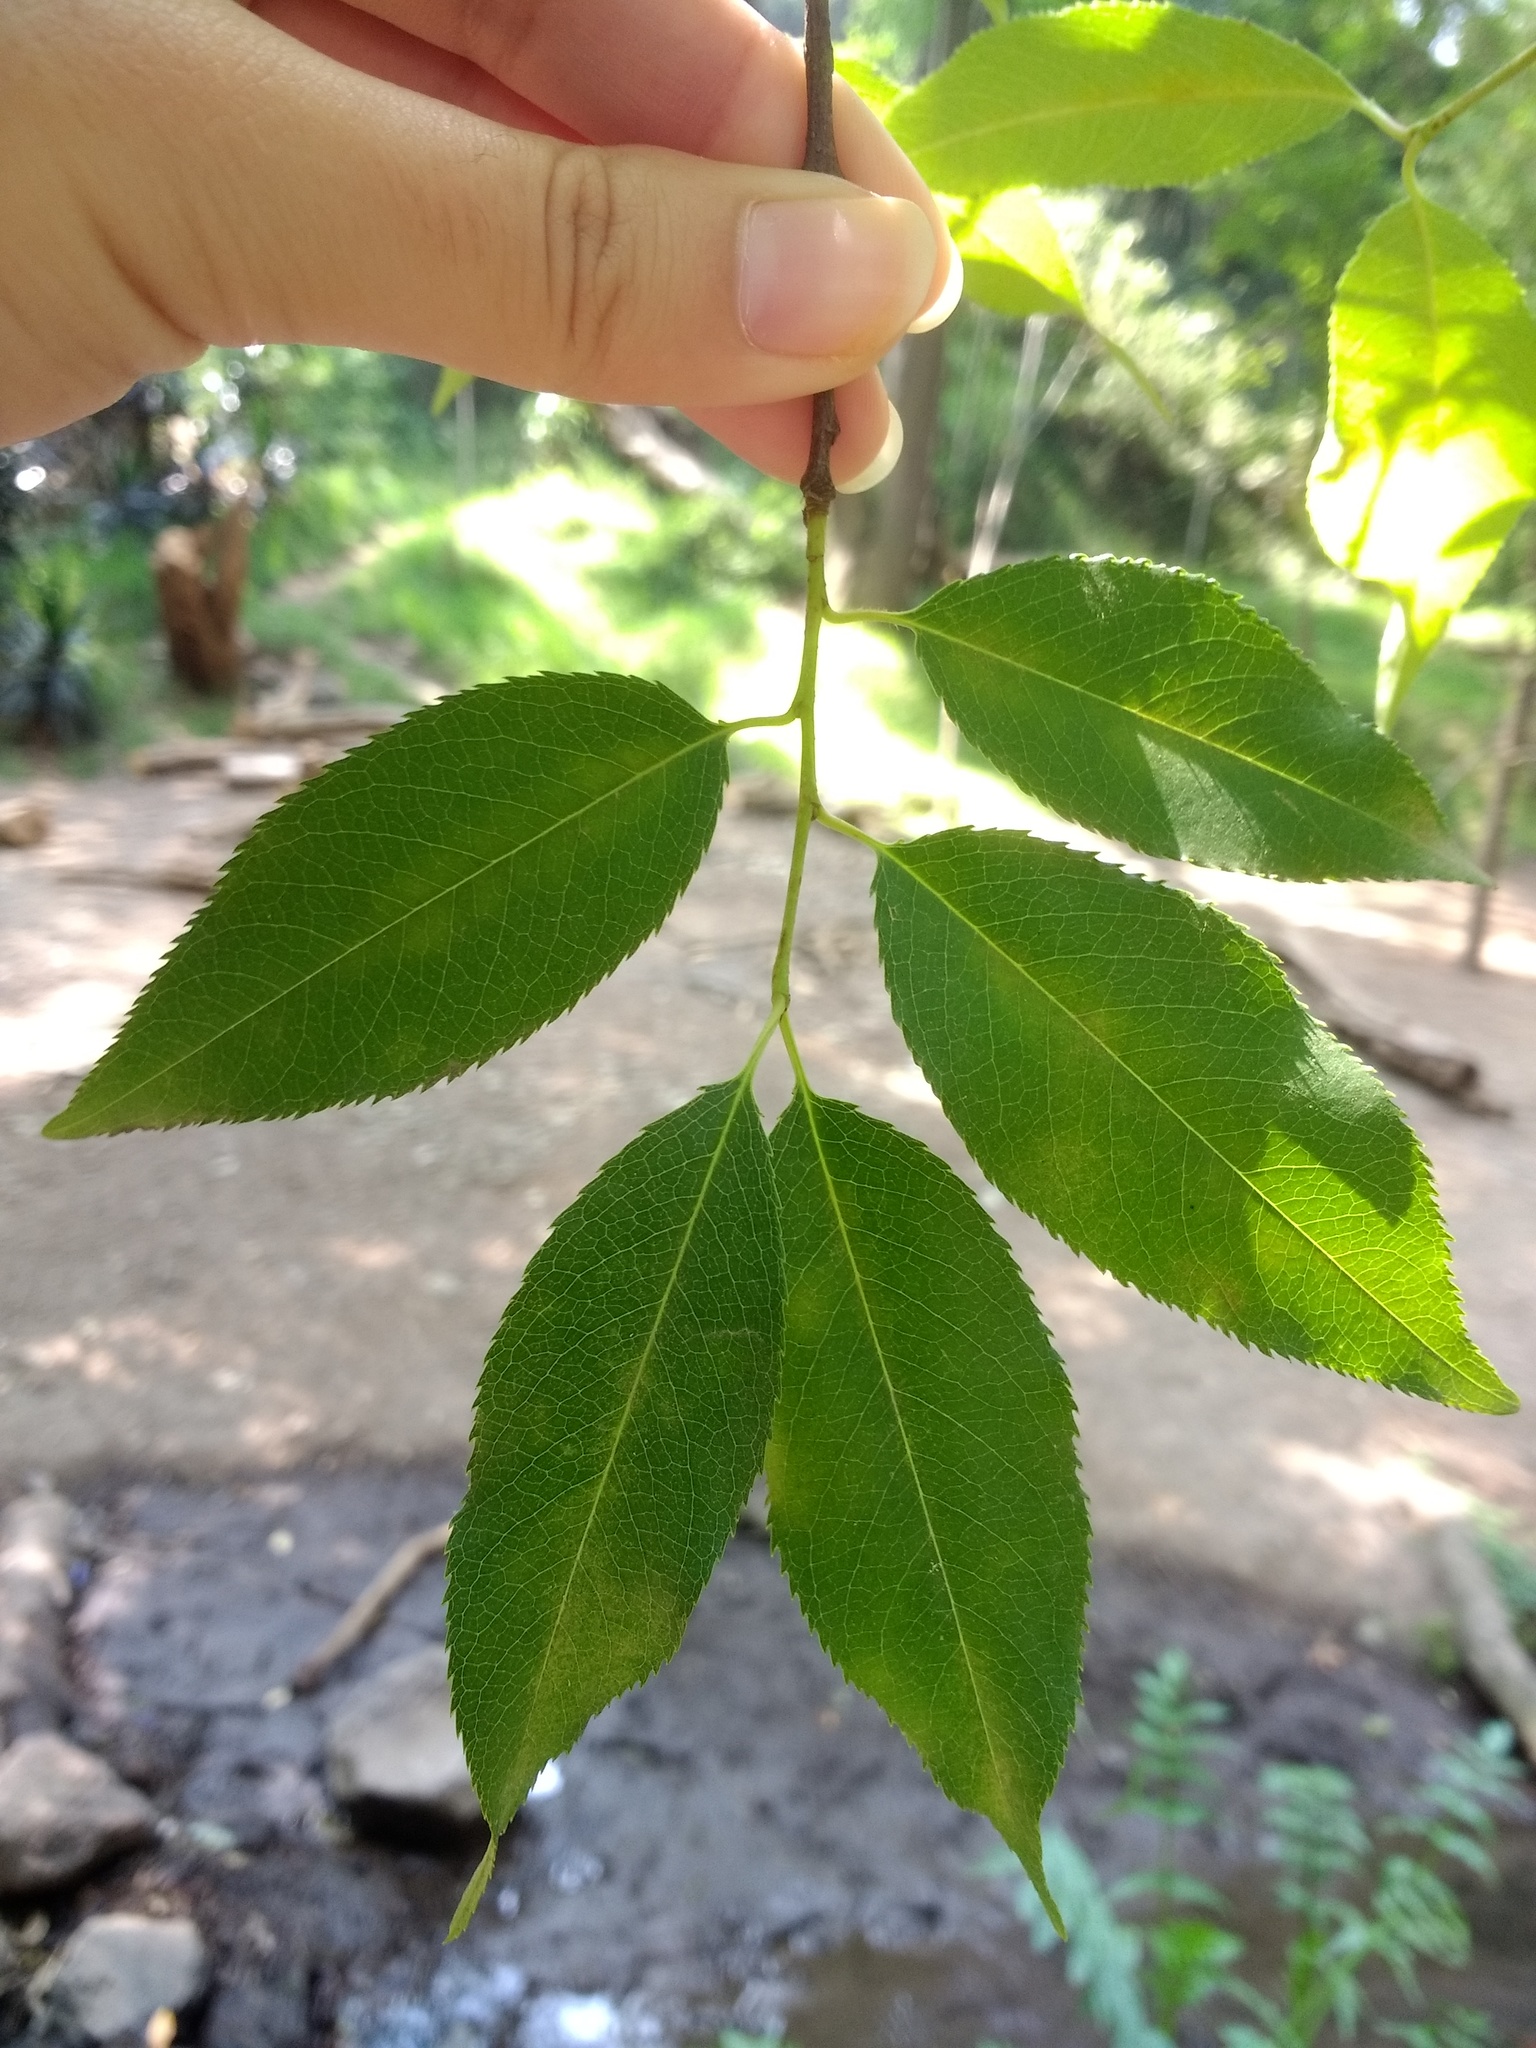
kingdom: Plantae
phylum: Tracheophyta
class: Magnoliopsida
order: Rosales
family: Rosaceae
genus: Prunus
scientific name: Prunus serotina
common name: Black cherry
